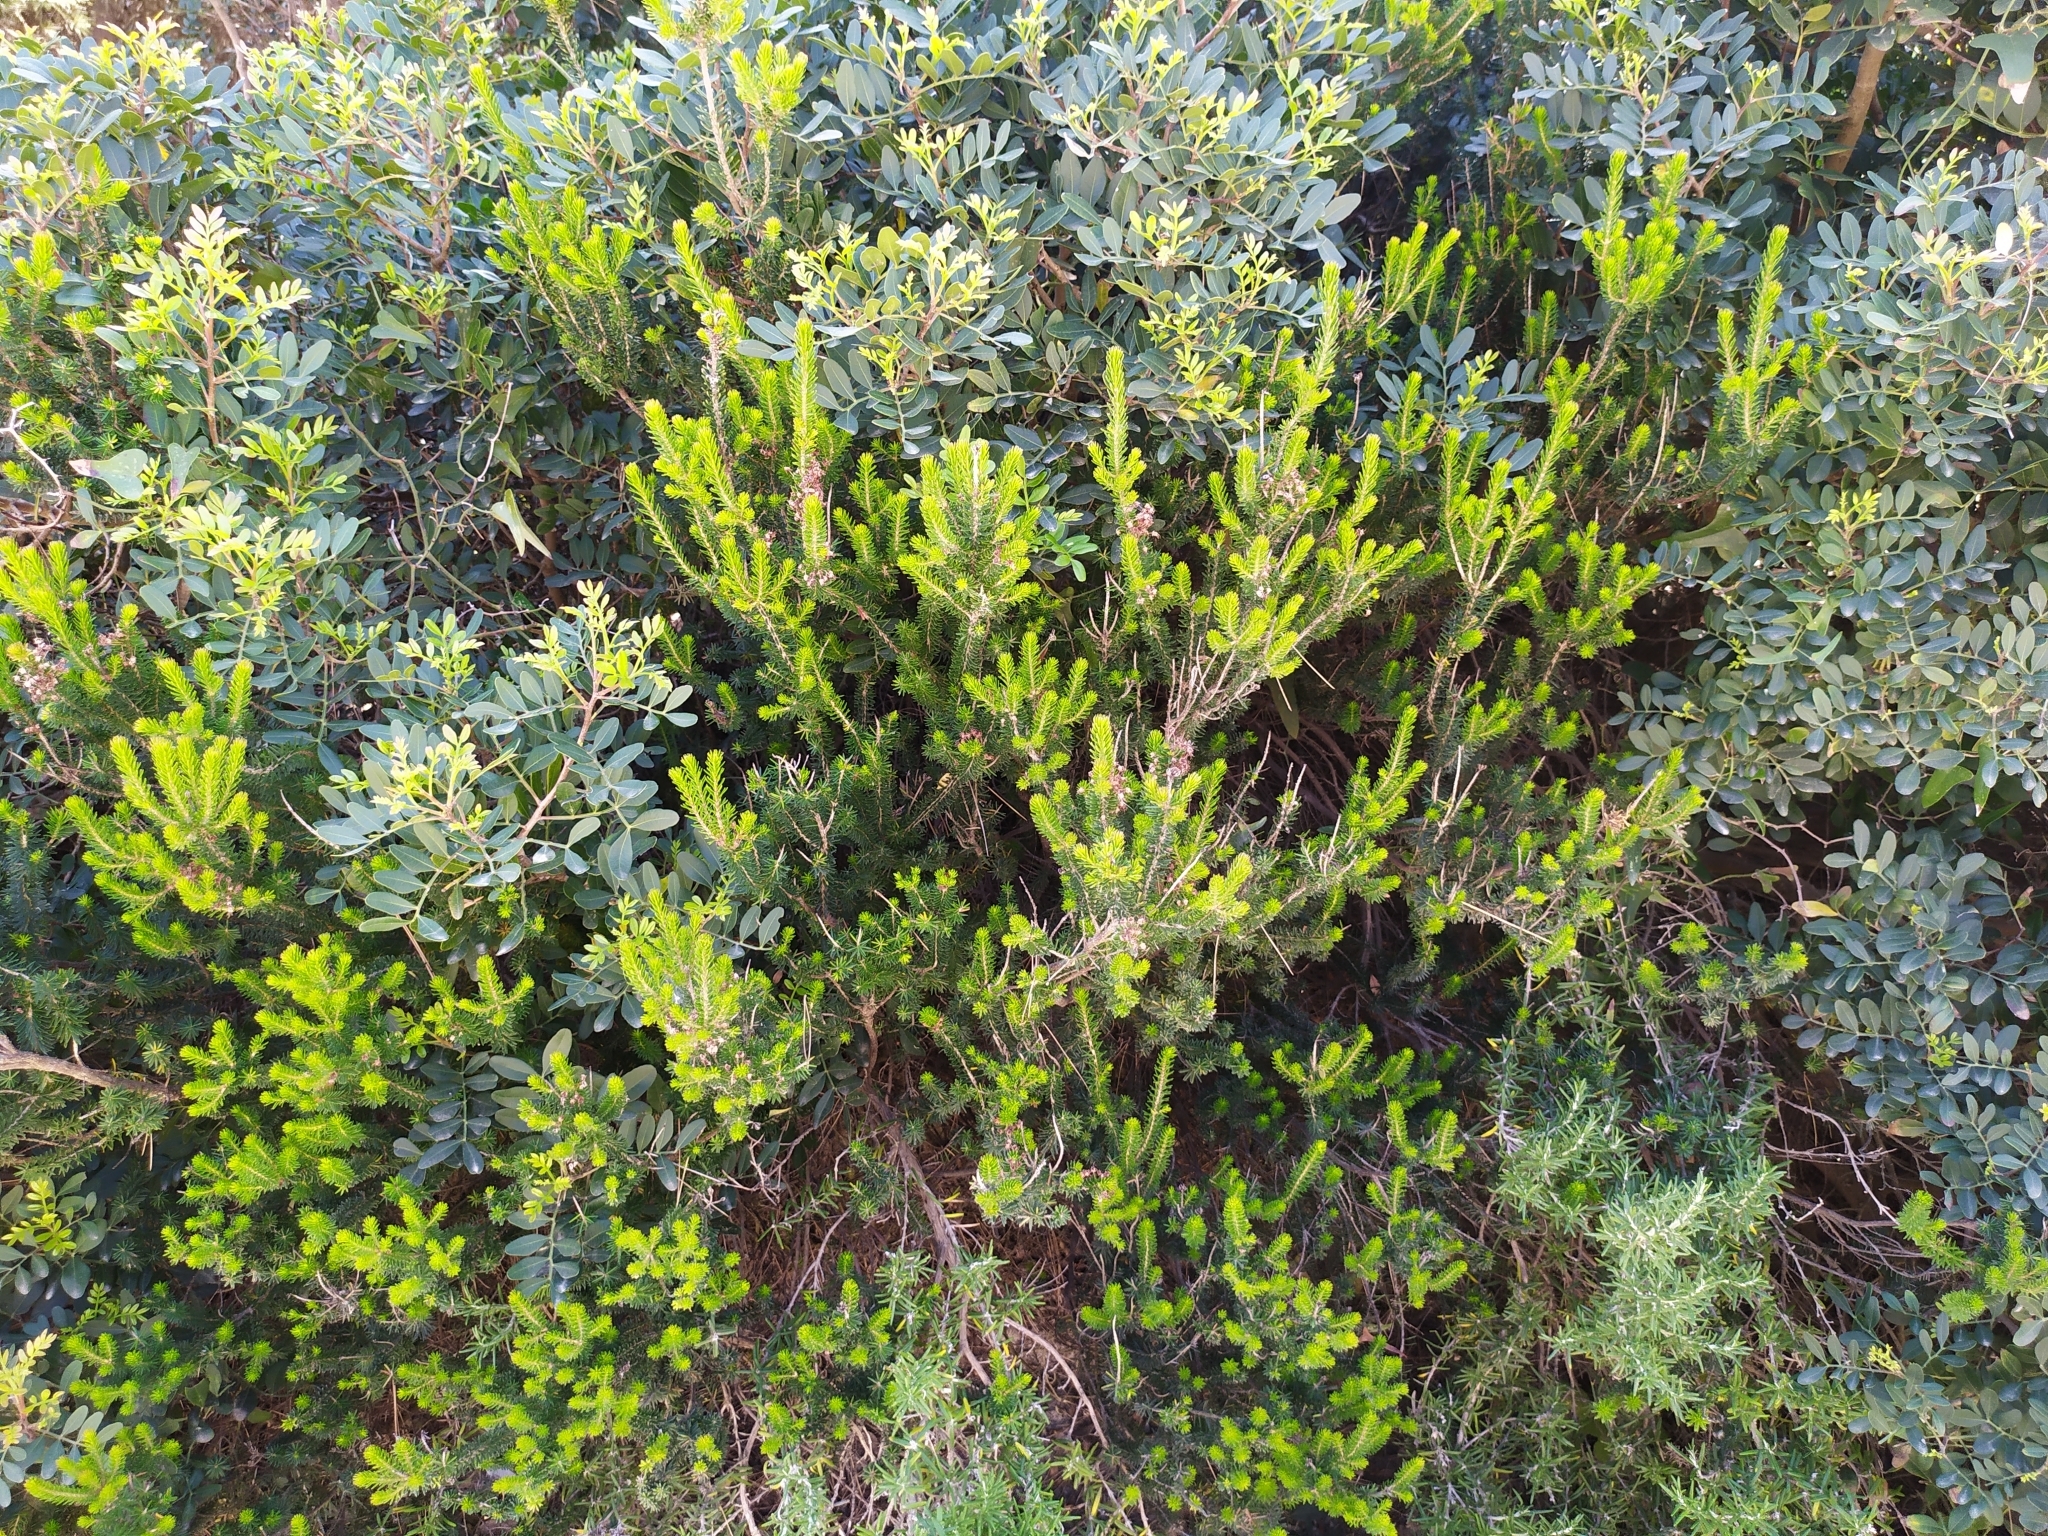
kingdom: Plantae
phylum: Tracheophyta
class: Magnoliopsida
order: Ericales
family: Ericaceae
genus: Erica
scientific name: Erica multiflora
